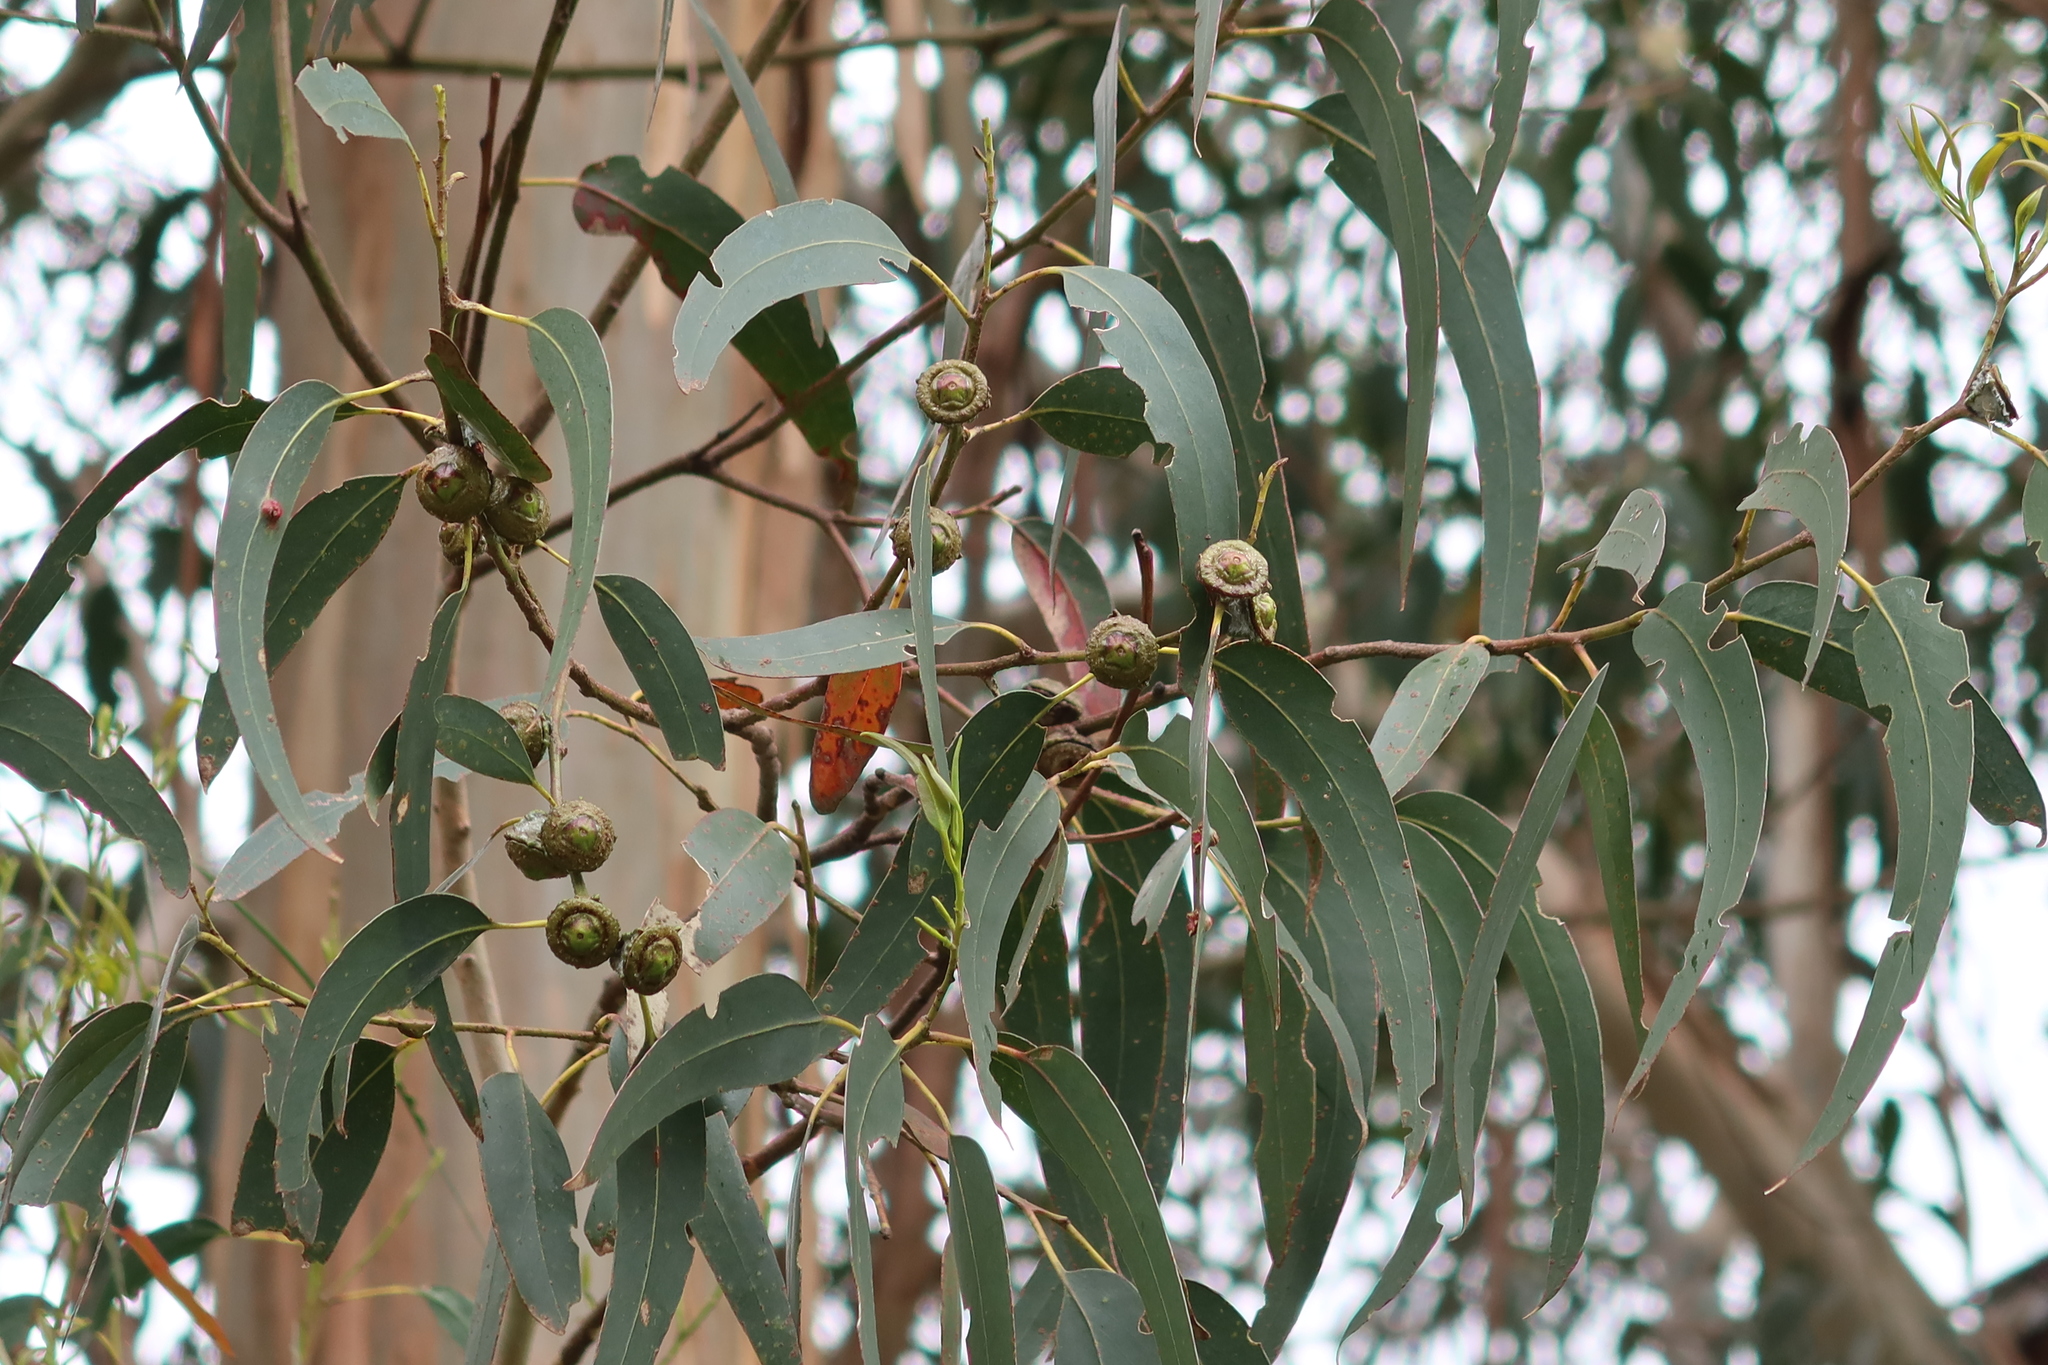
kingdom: Plantae
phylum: Tracheophyta
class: Magnoliopsida
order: Myrtales
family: Myrtaceae
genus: Eucalyptus
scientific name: Eucalyptus globulus
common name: Southern blue-gum
